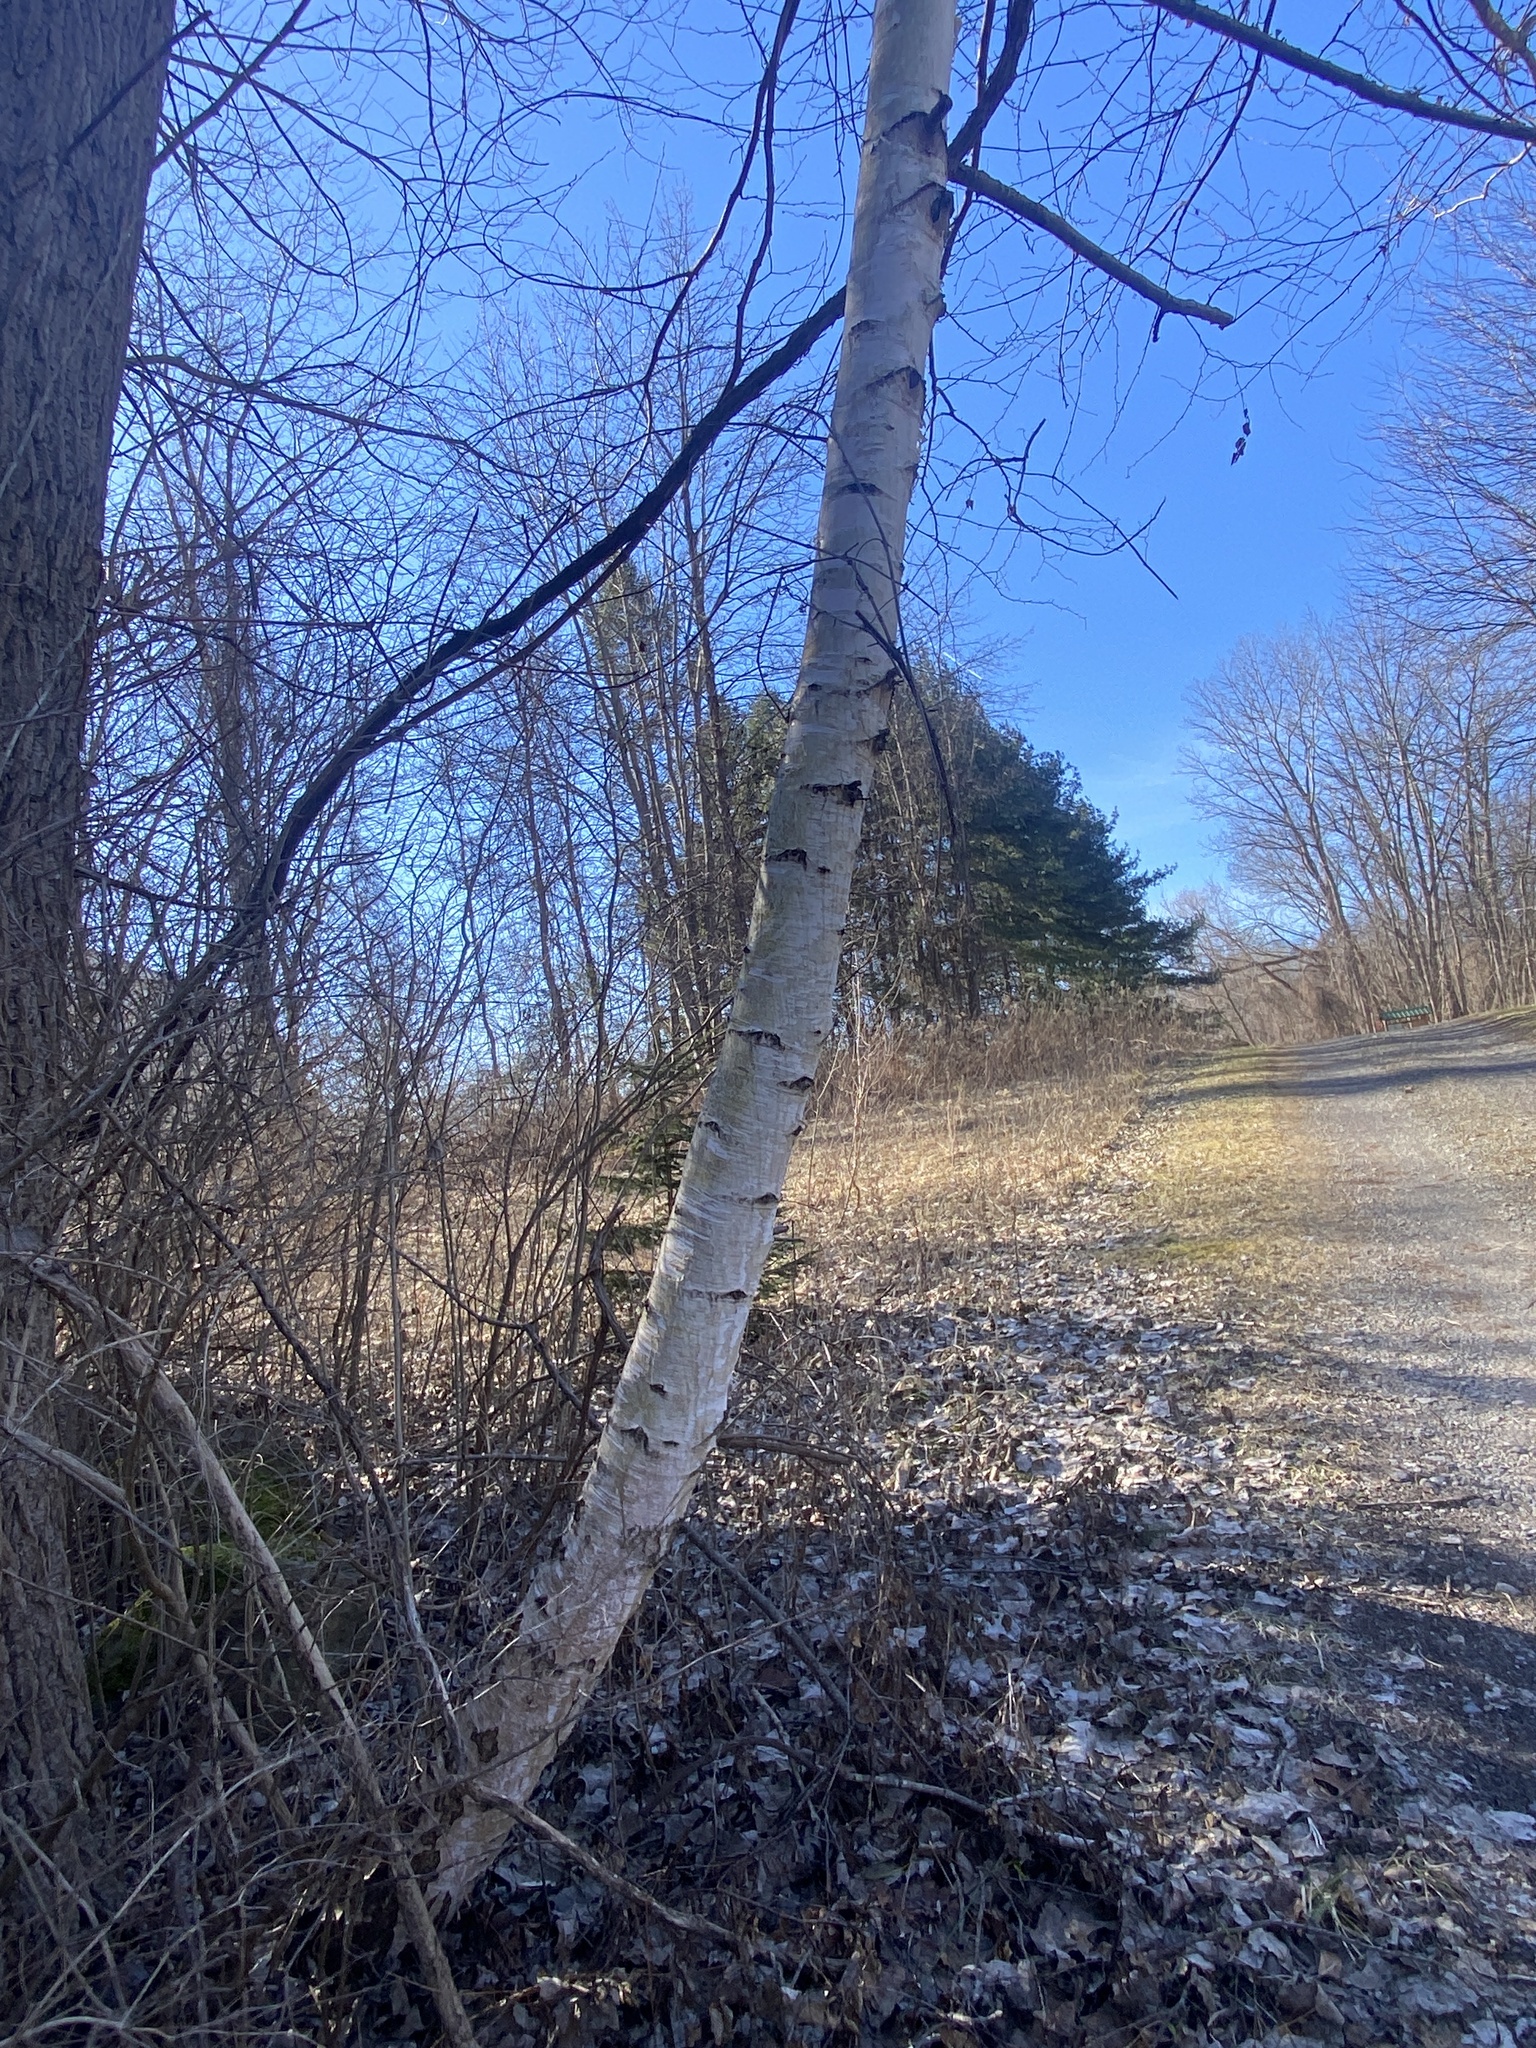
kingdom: Plantae
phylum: Tracheophyta
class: Magnoliopsida
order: Fagales
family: Betulaceae
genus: Betula
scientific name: Betula papyrifera
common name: Paper birch
